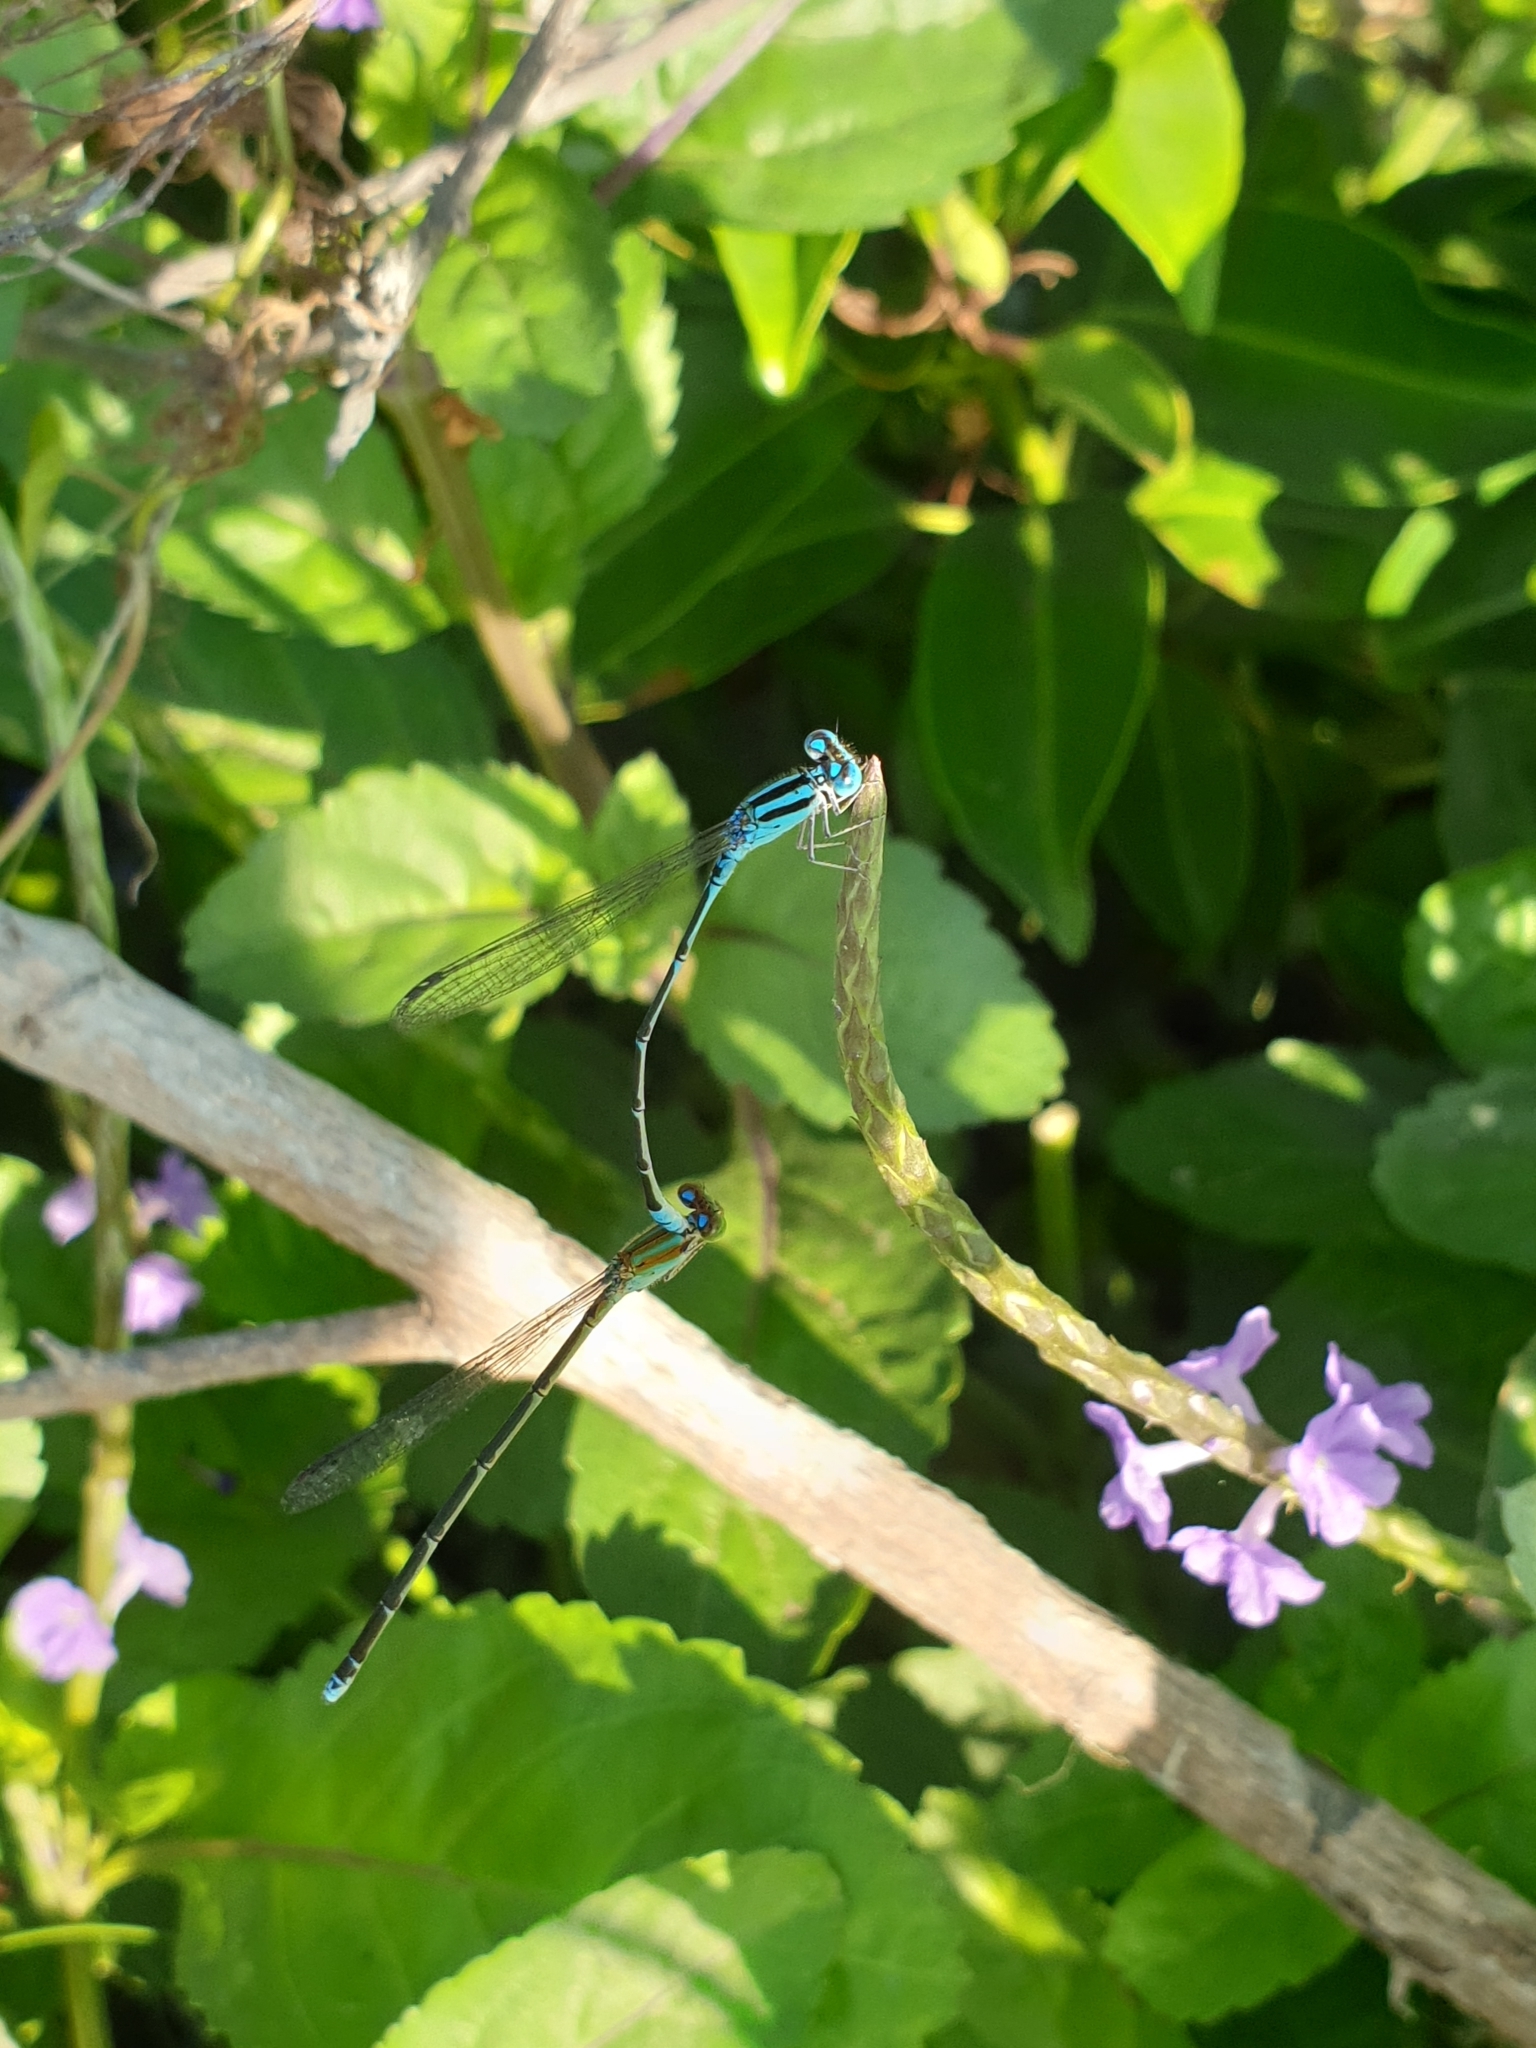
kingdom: Animalia
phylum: Arthropoda
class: Insecta
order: Odonata
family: Coenagrionidae
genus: Pseudagrion
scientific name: Pseudagrion microcephalum
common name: Blue riverdamsel
